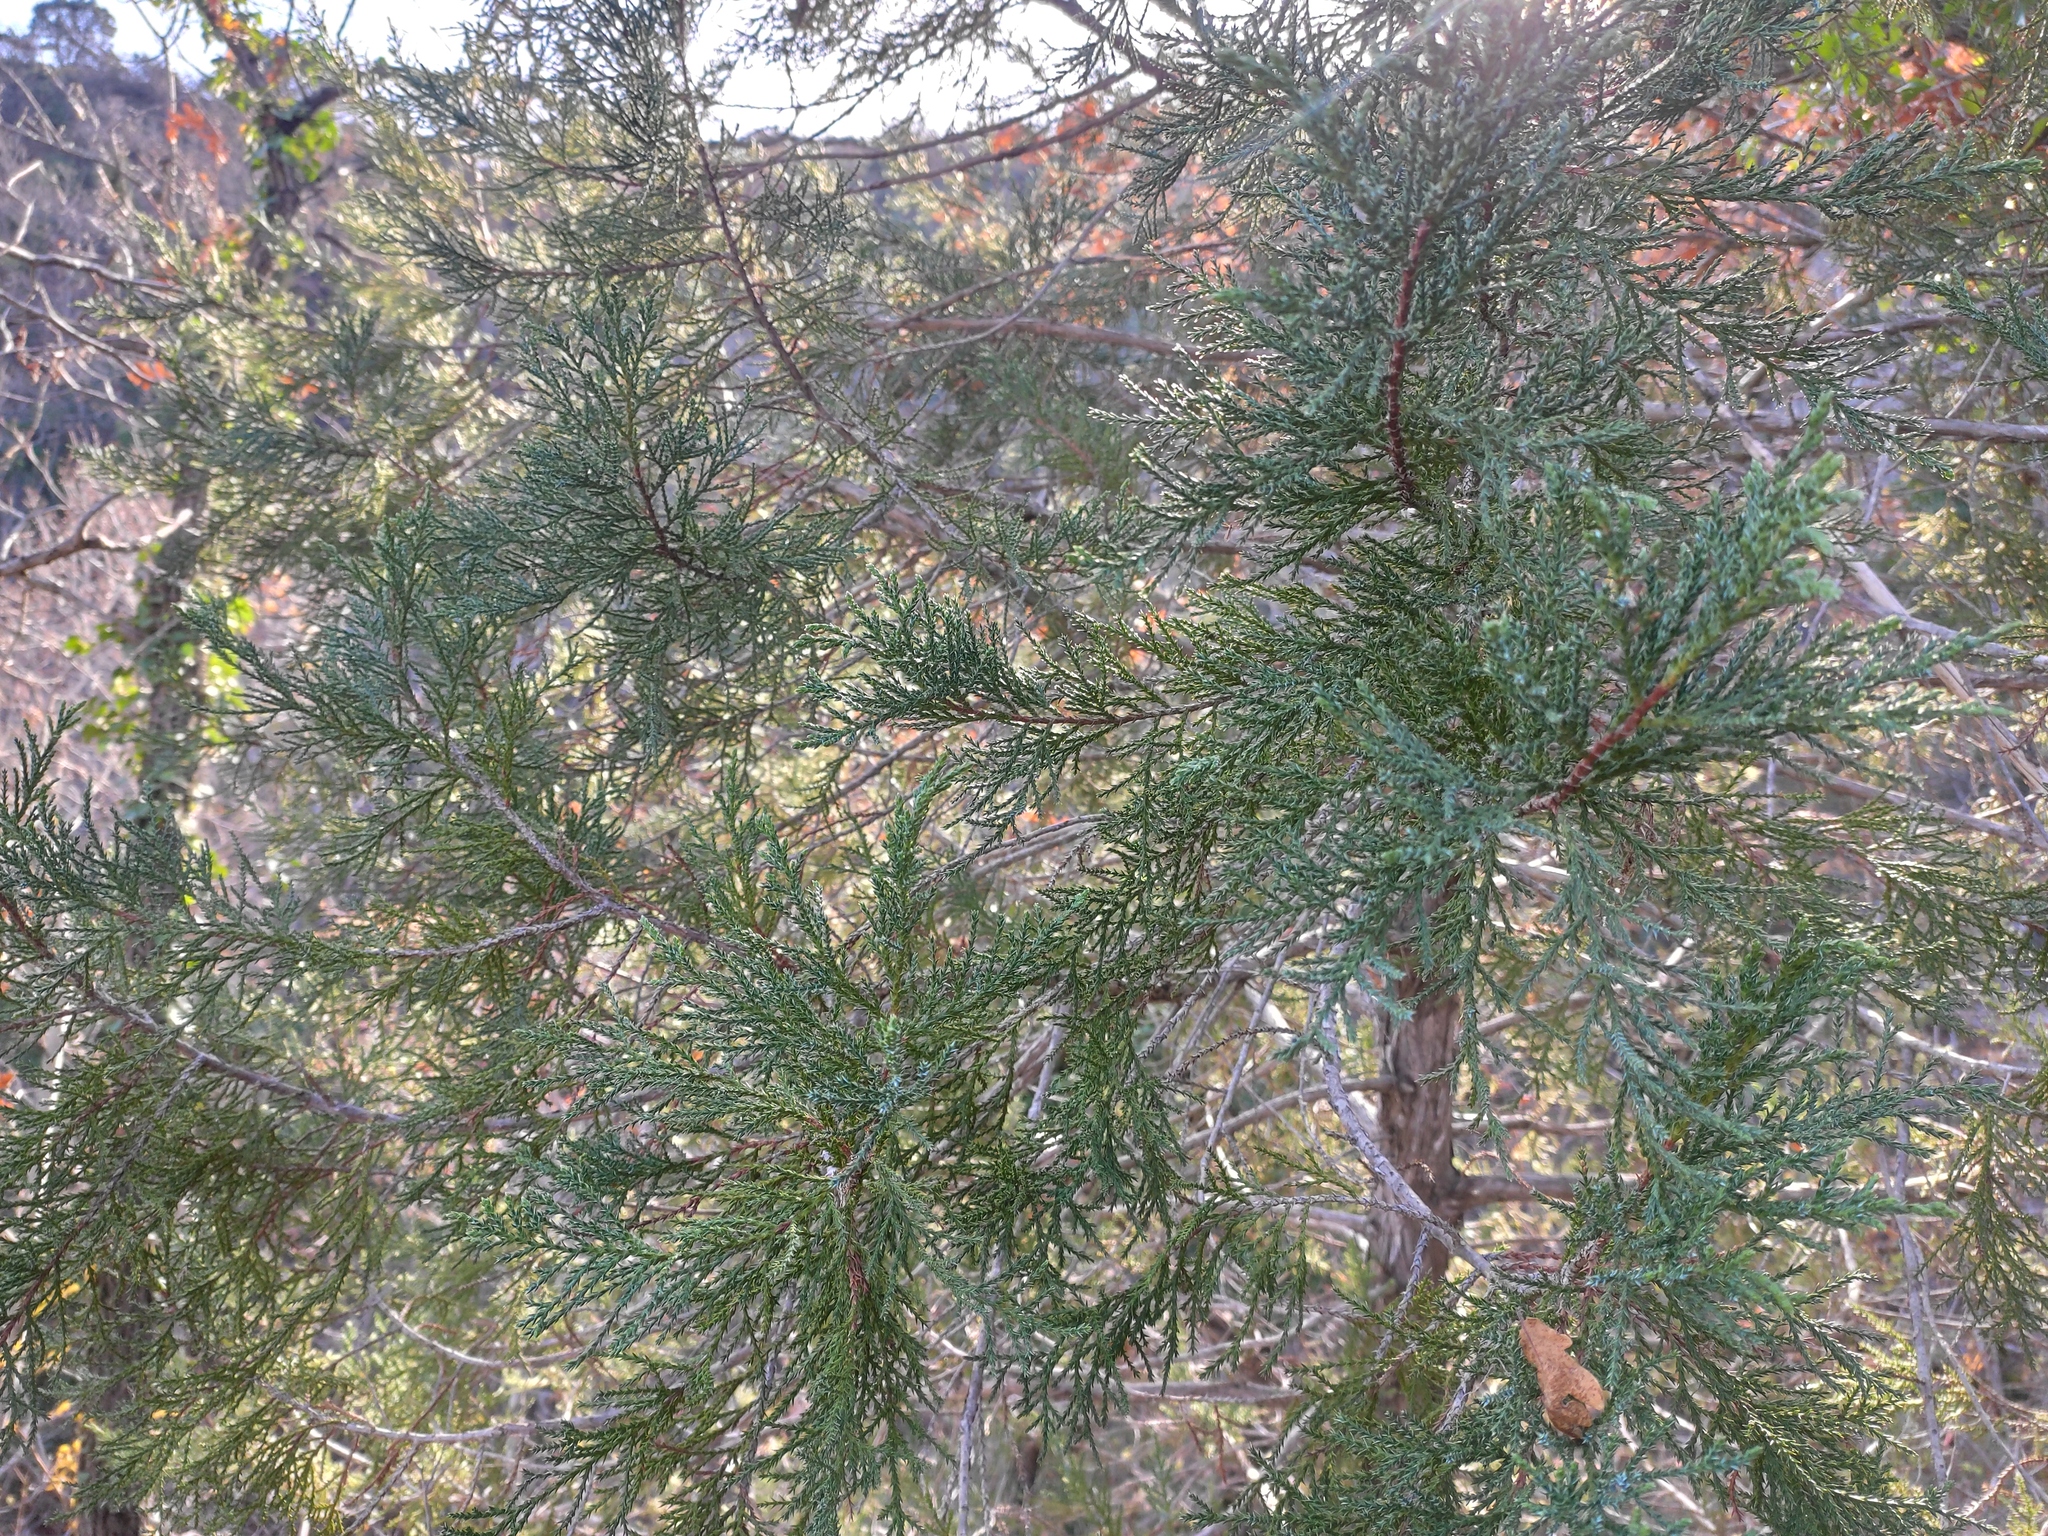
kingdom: Plantae
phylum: Tracheophyta
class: Pinopsida
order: Pinales
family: Cupressaceae
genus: Juniperus
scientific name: Juniperus foetidissima
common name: Stinking juniper
